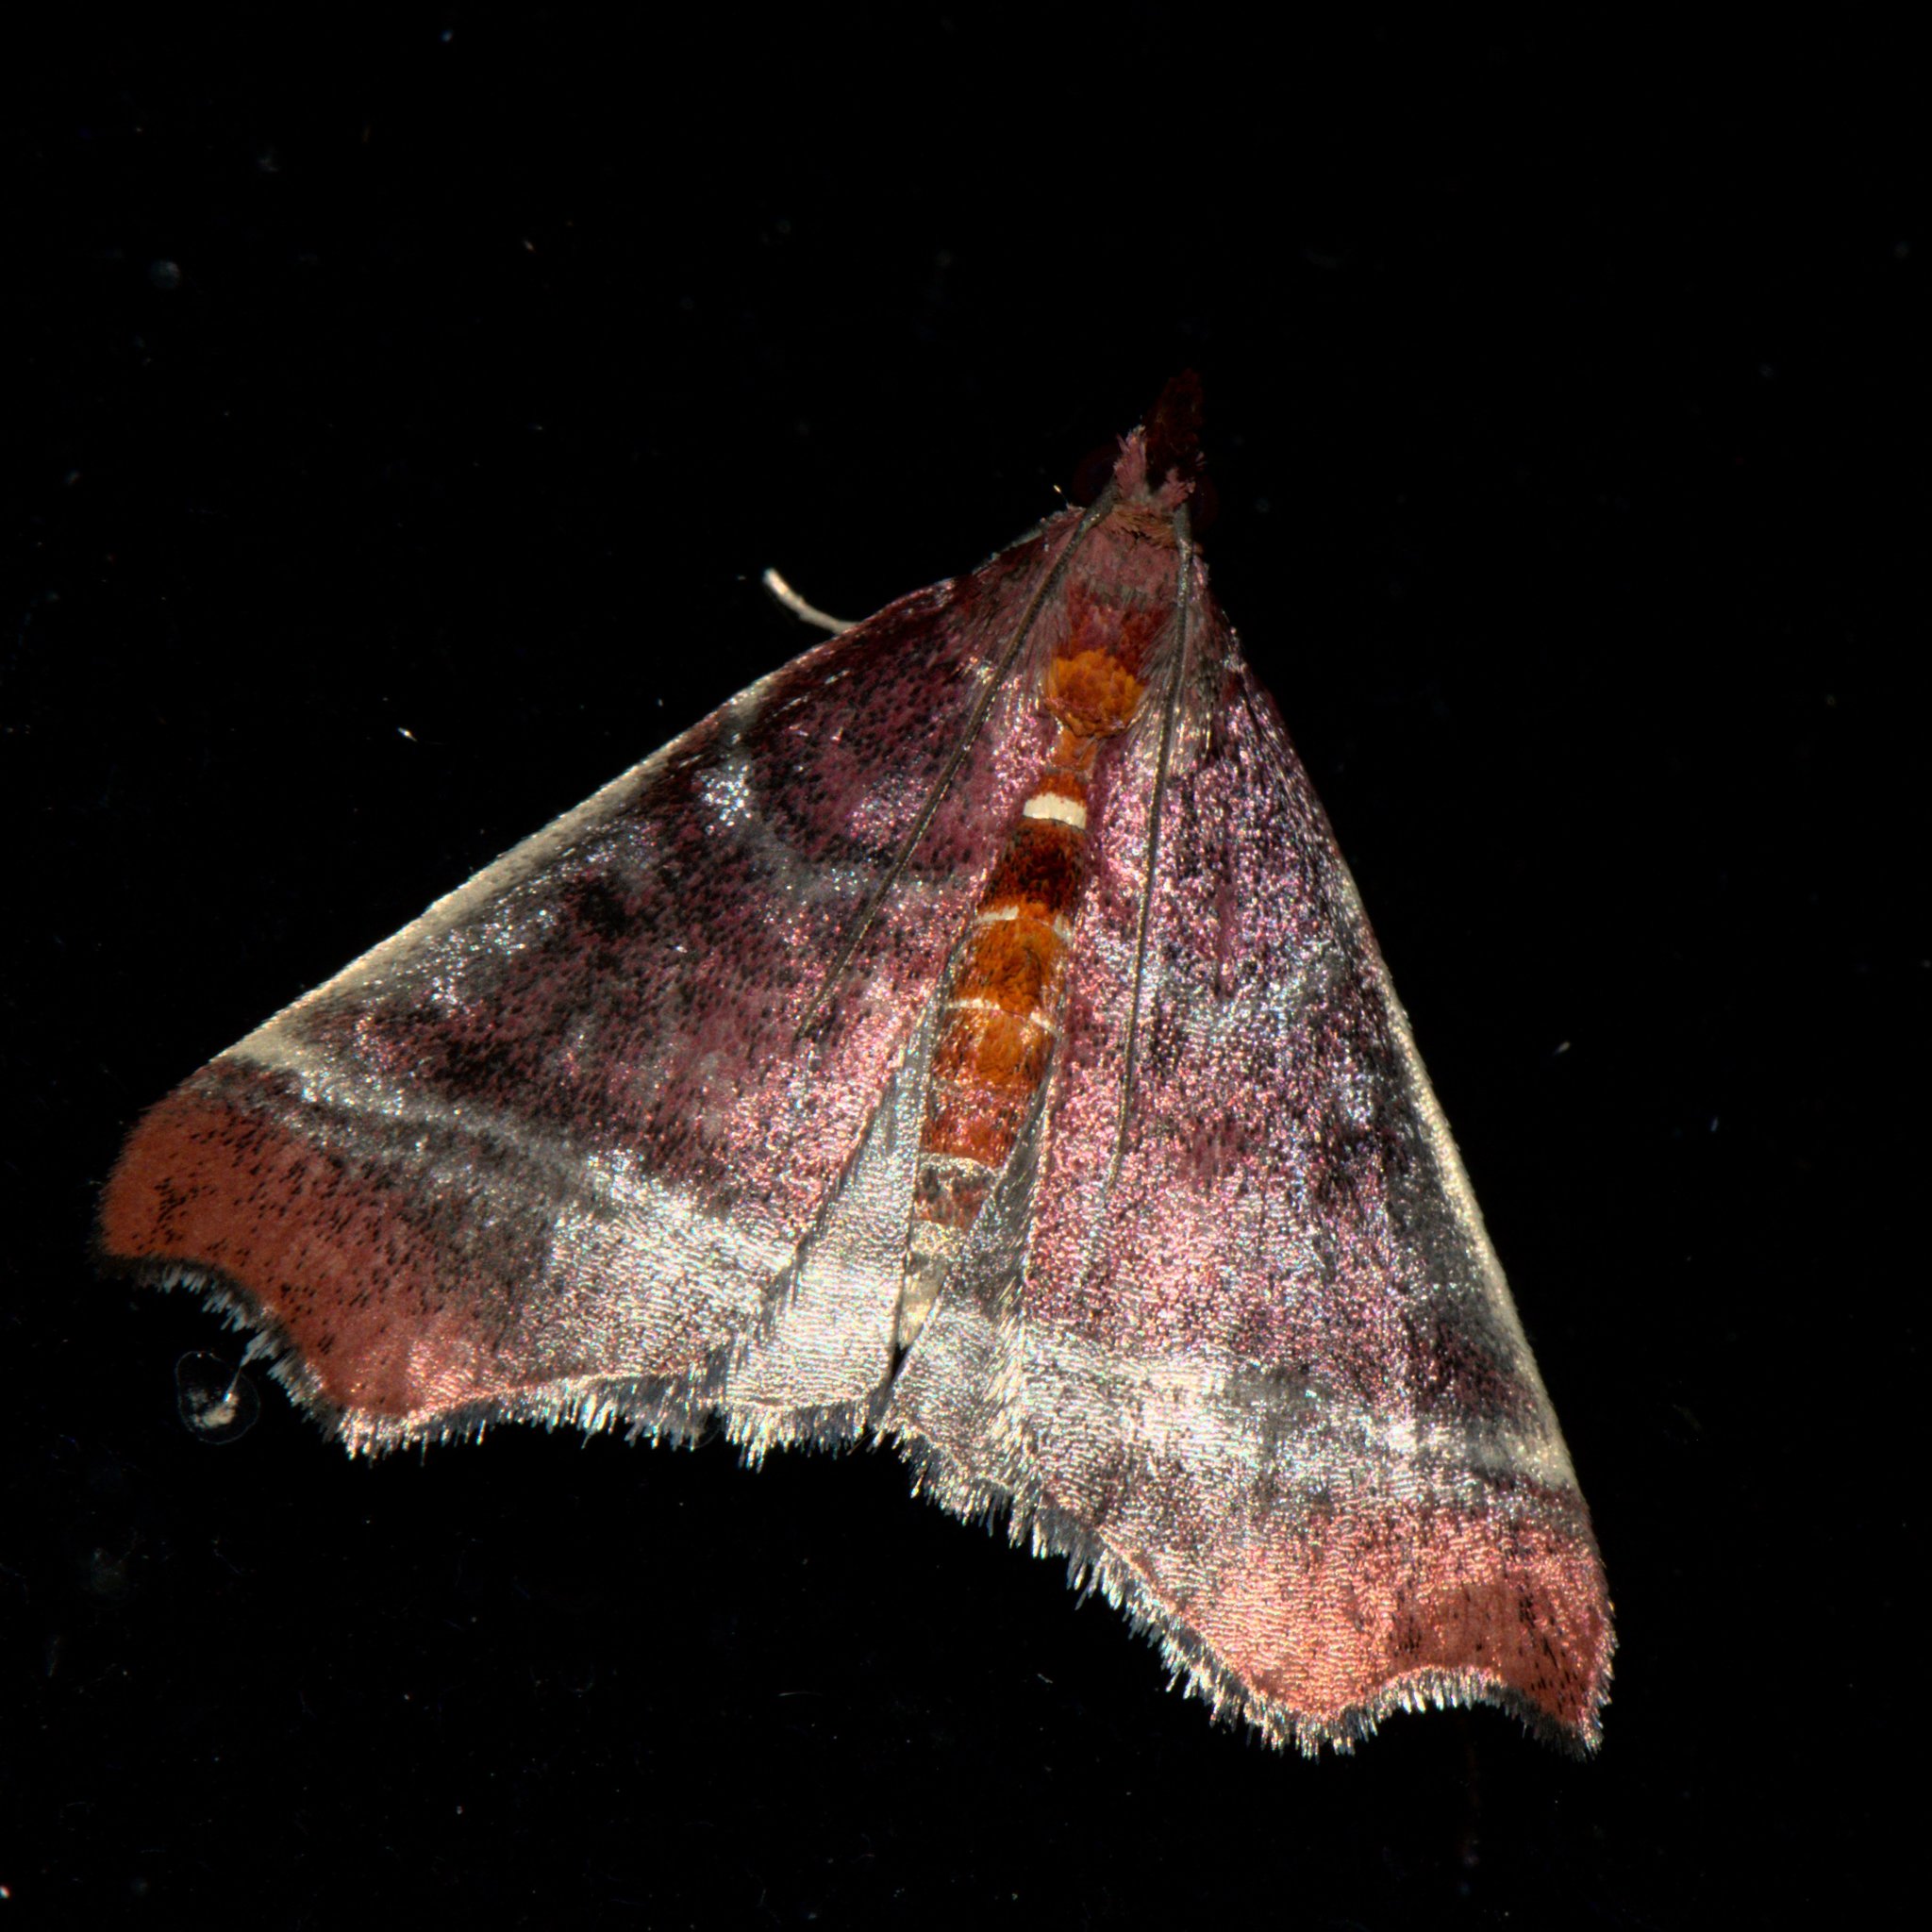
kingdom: Animalia
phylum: Arthropoda
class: Insecta
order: Lepidoptera
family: Crambidae
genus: Rodaba
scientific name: Rodaba angulipennis
